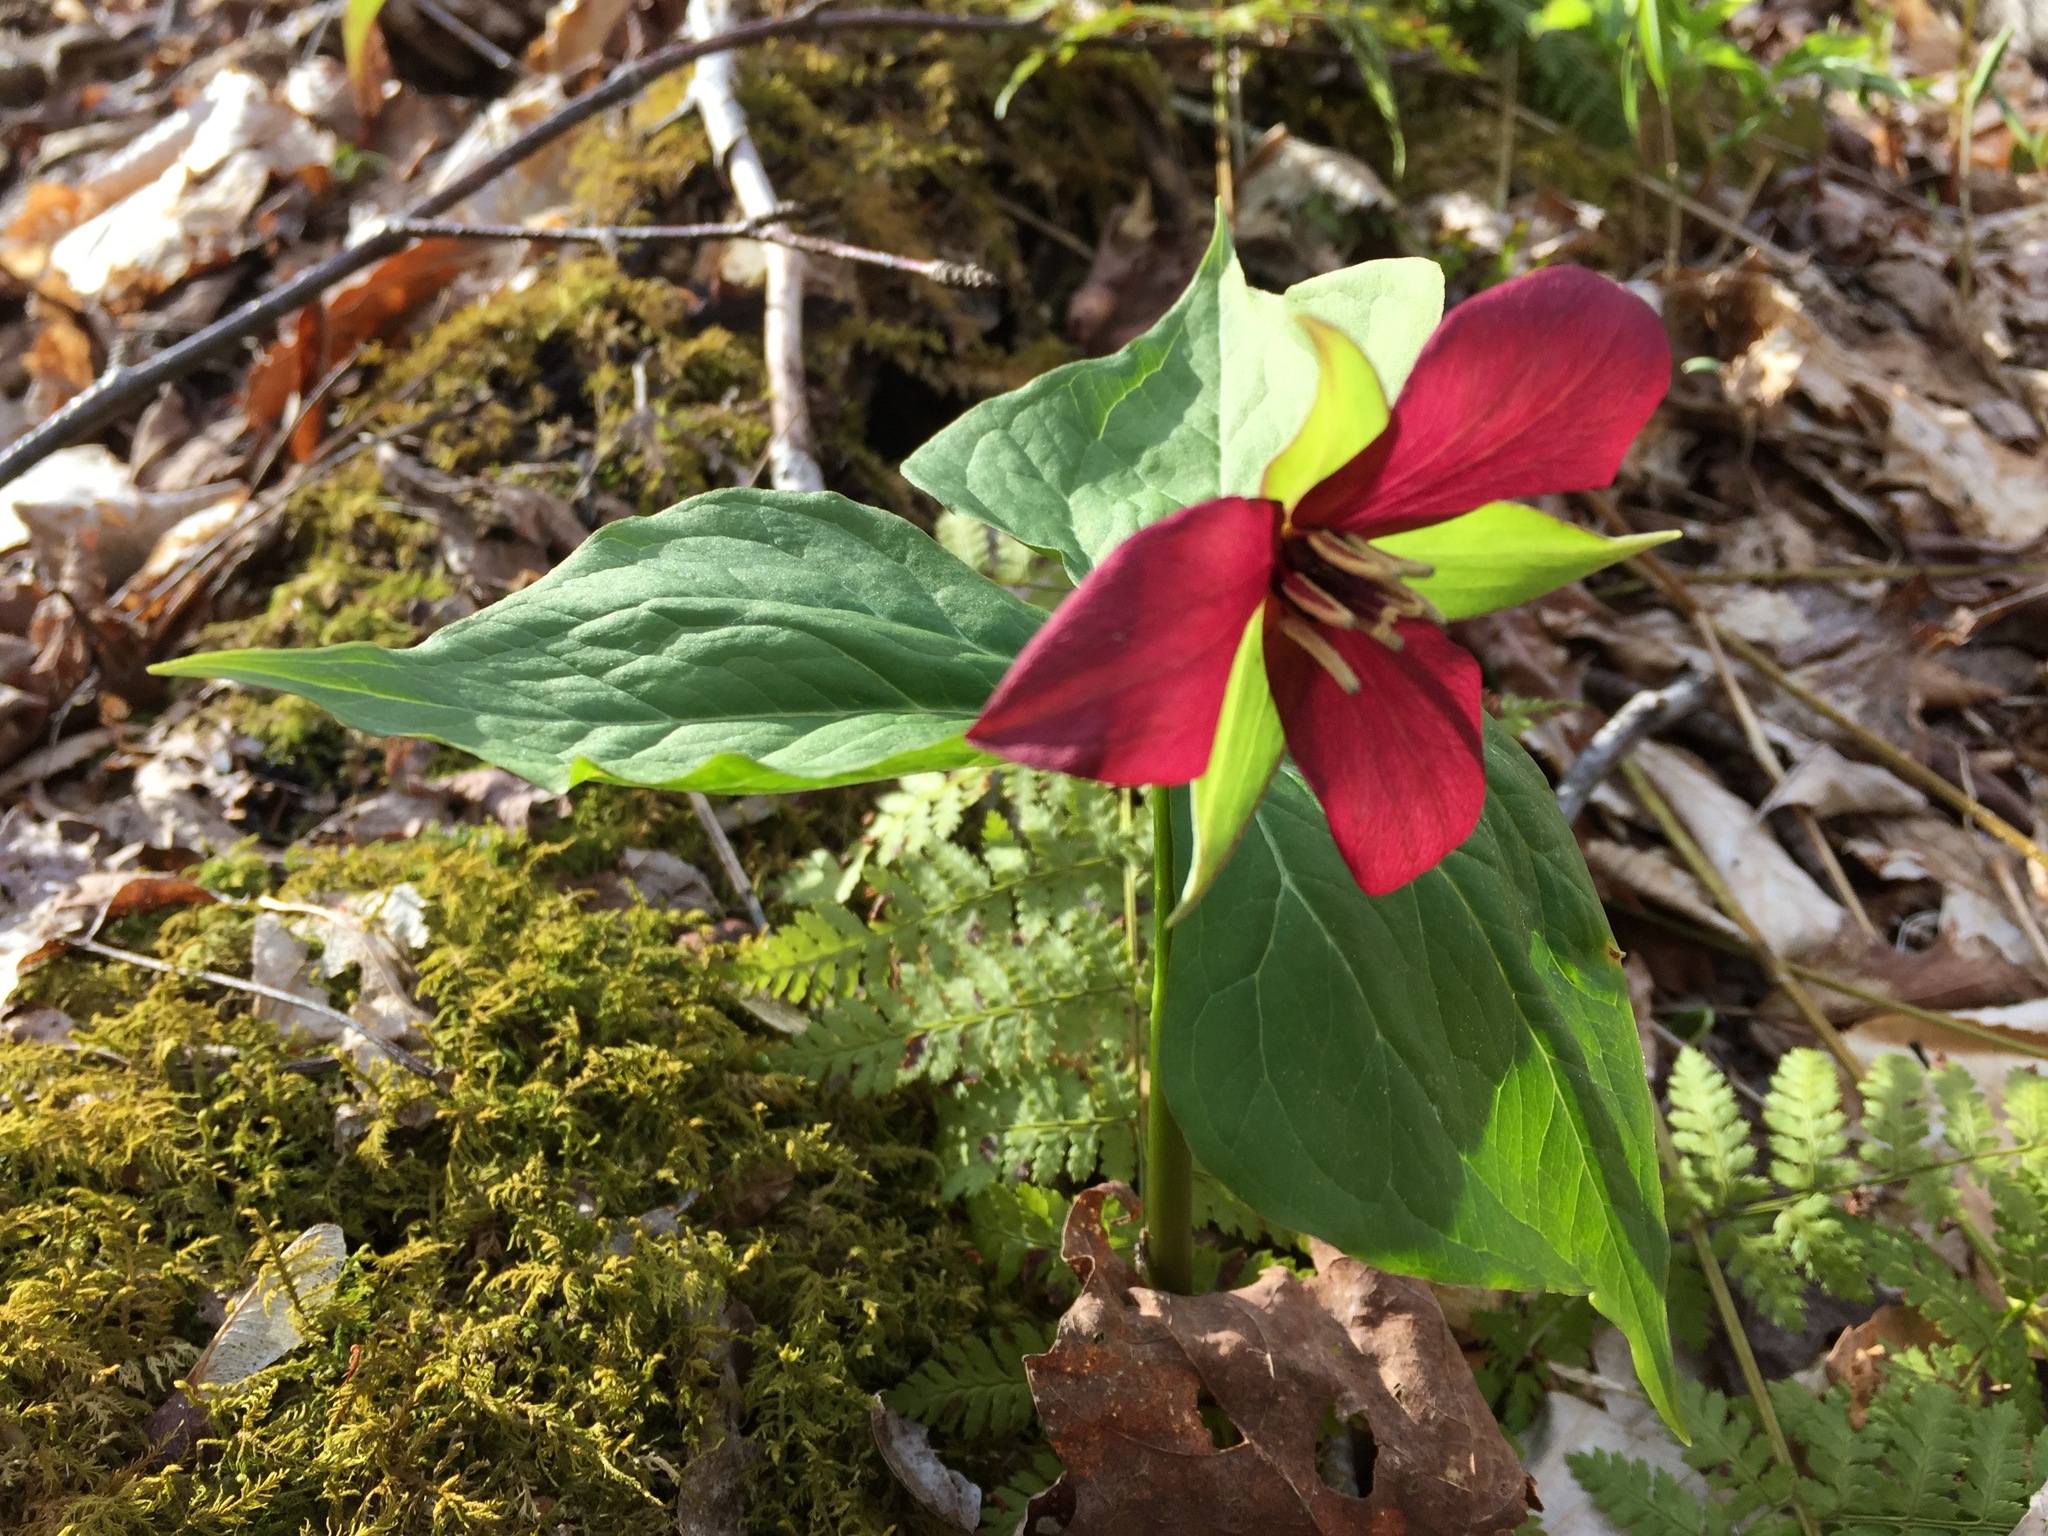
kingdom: Plantae
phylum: Tracheophyta
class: Liliopsida
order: Liliales
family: Melanthiaceae
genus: Trillium
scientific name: Trillium erectum
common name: Purple trillium
